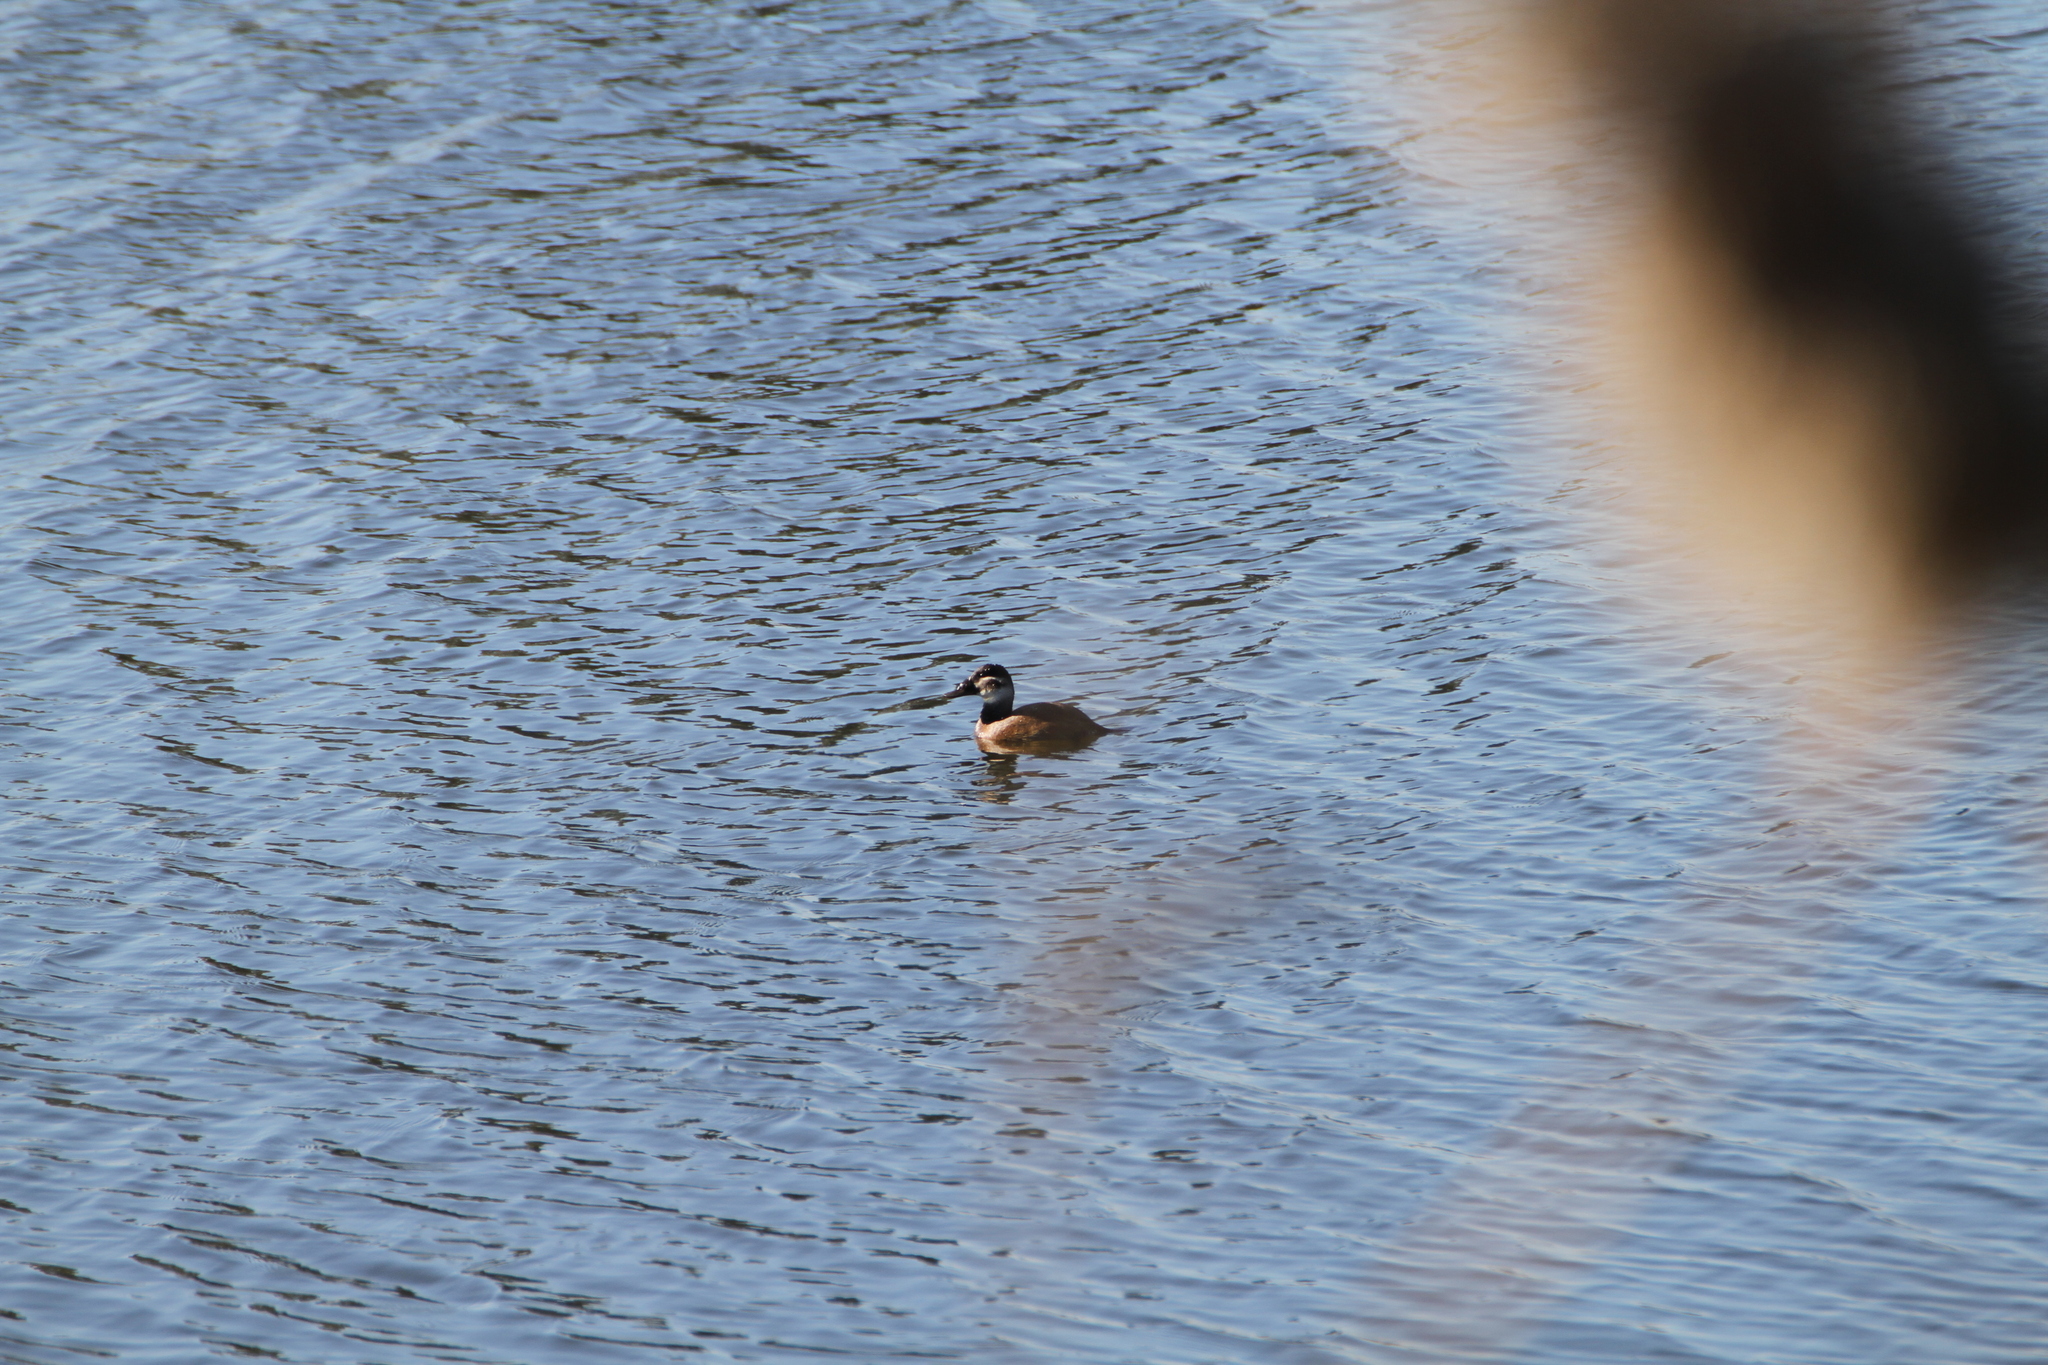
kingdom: Animalia
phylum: Chordata
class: Aves
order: Anseriformes
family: Anatidae
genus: Oxyura
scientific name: Oxyura leucocephala
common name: White-headed duck
